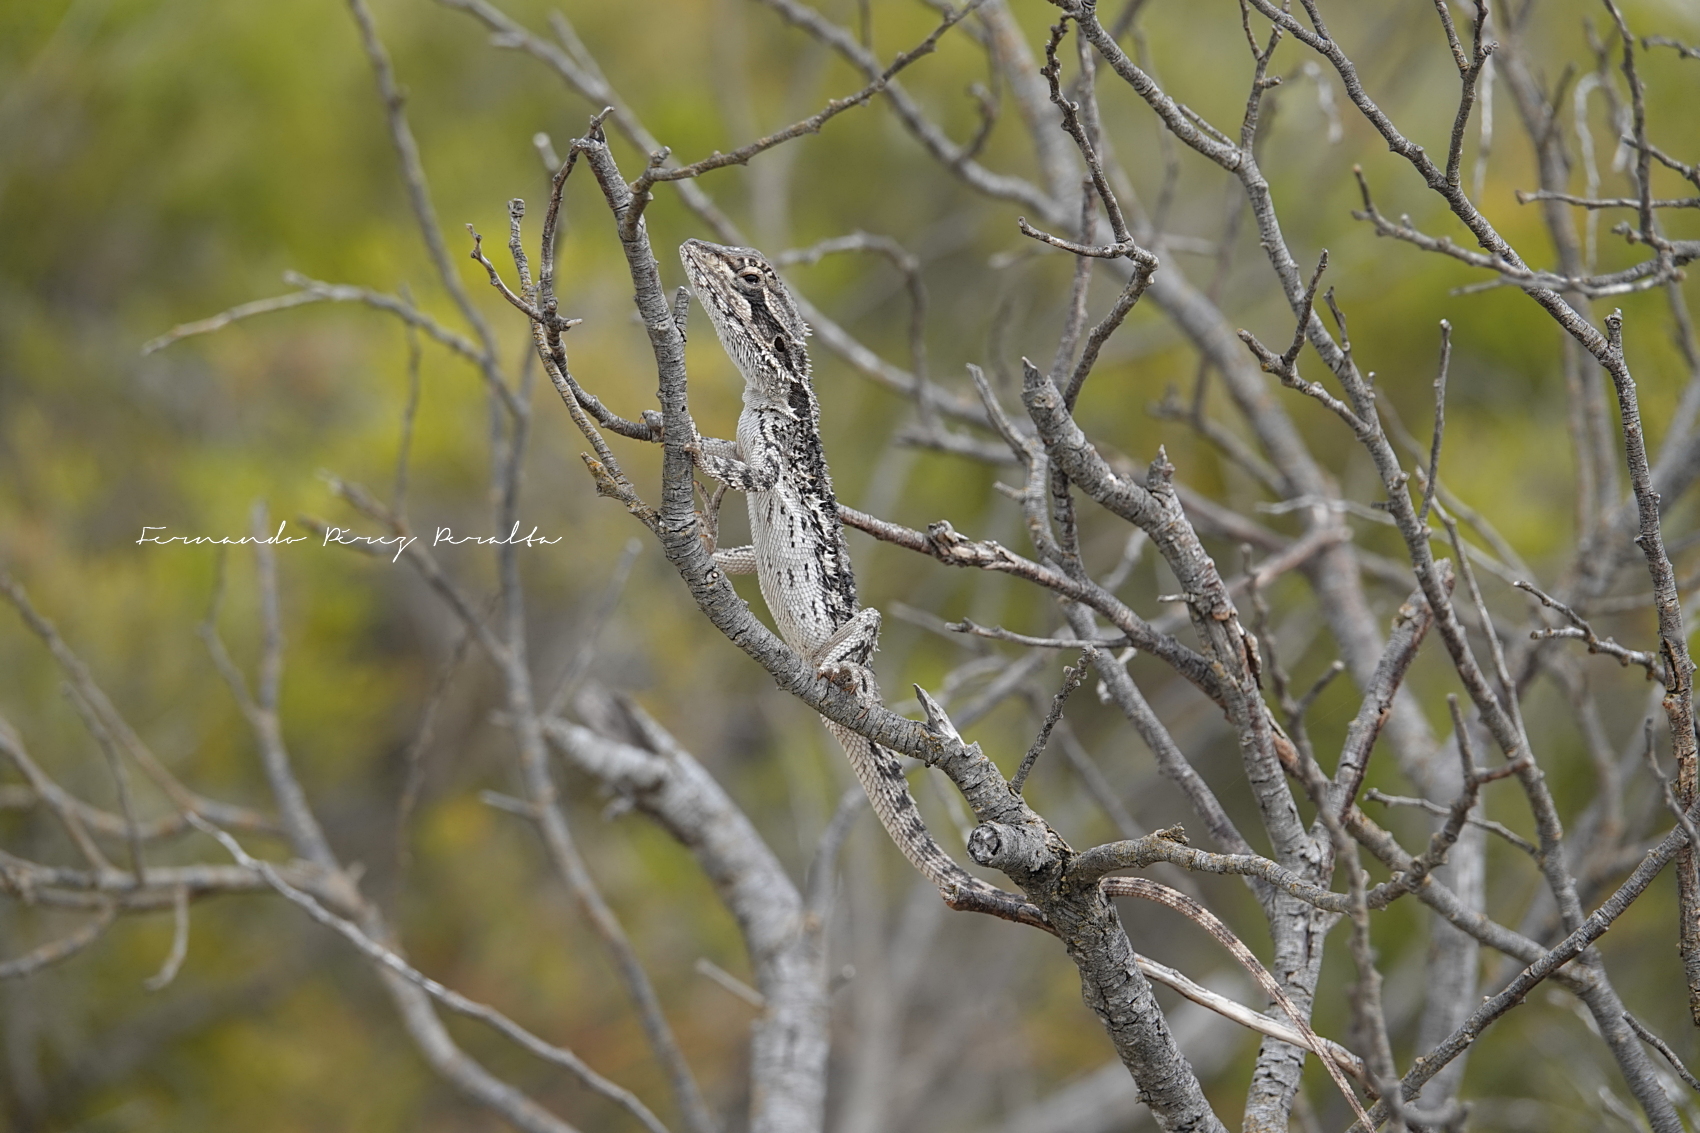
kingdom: Animalia
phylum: Chordata
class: Squamata
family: Agamidae
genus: Pogona
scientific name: Pogona minor
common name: Dwarf bearded dragon
